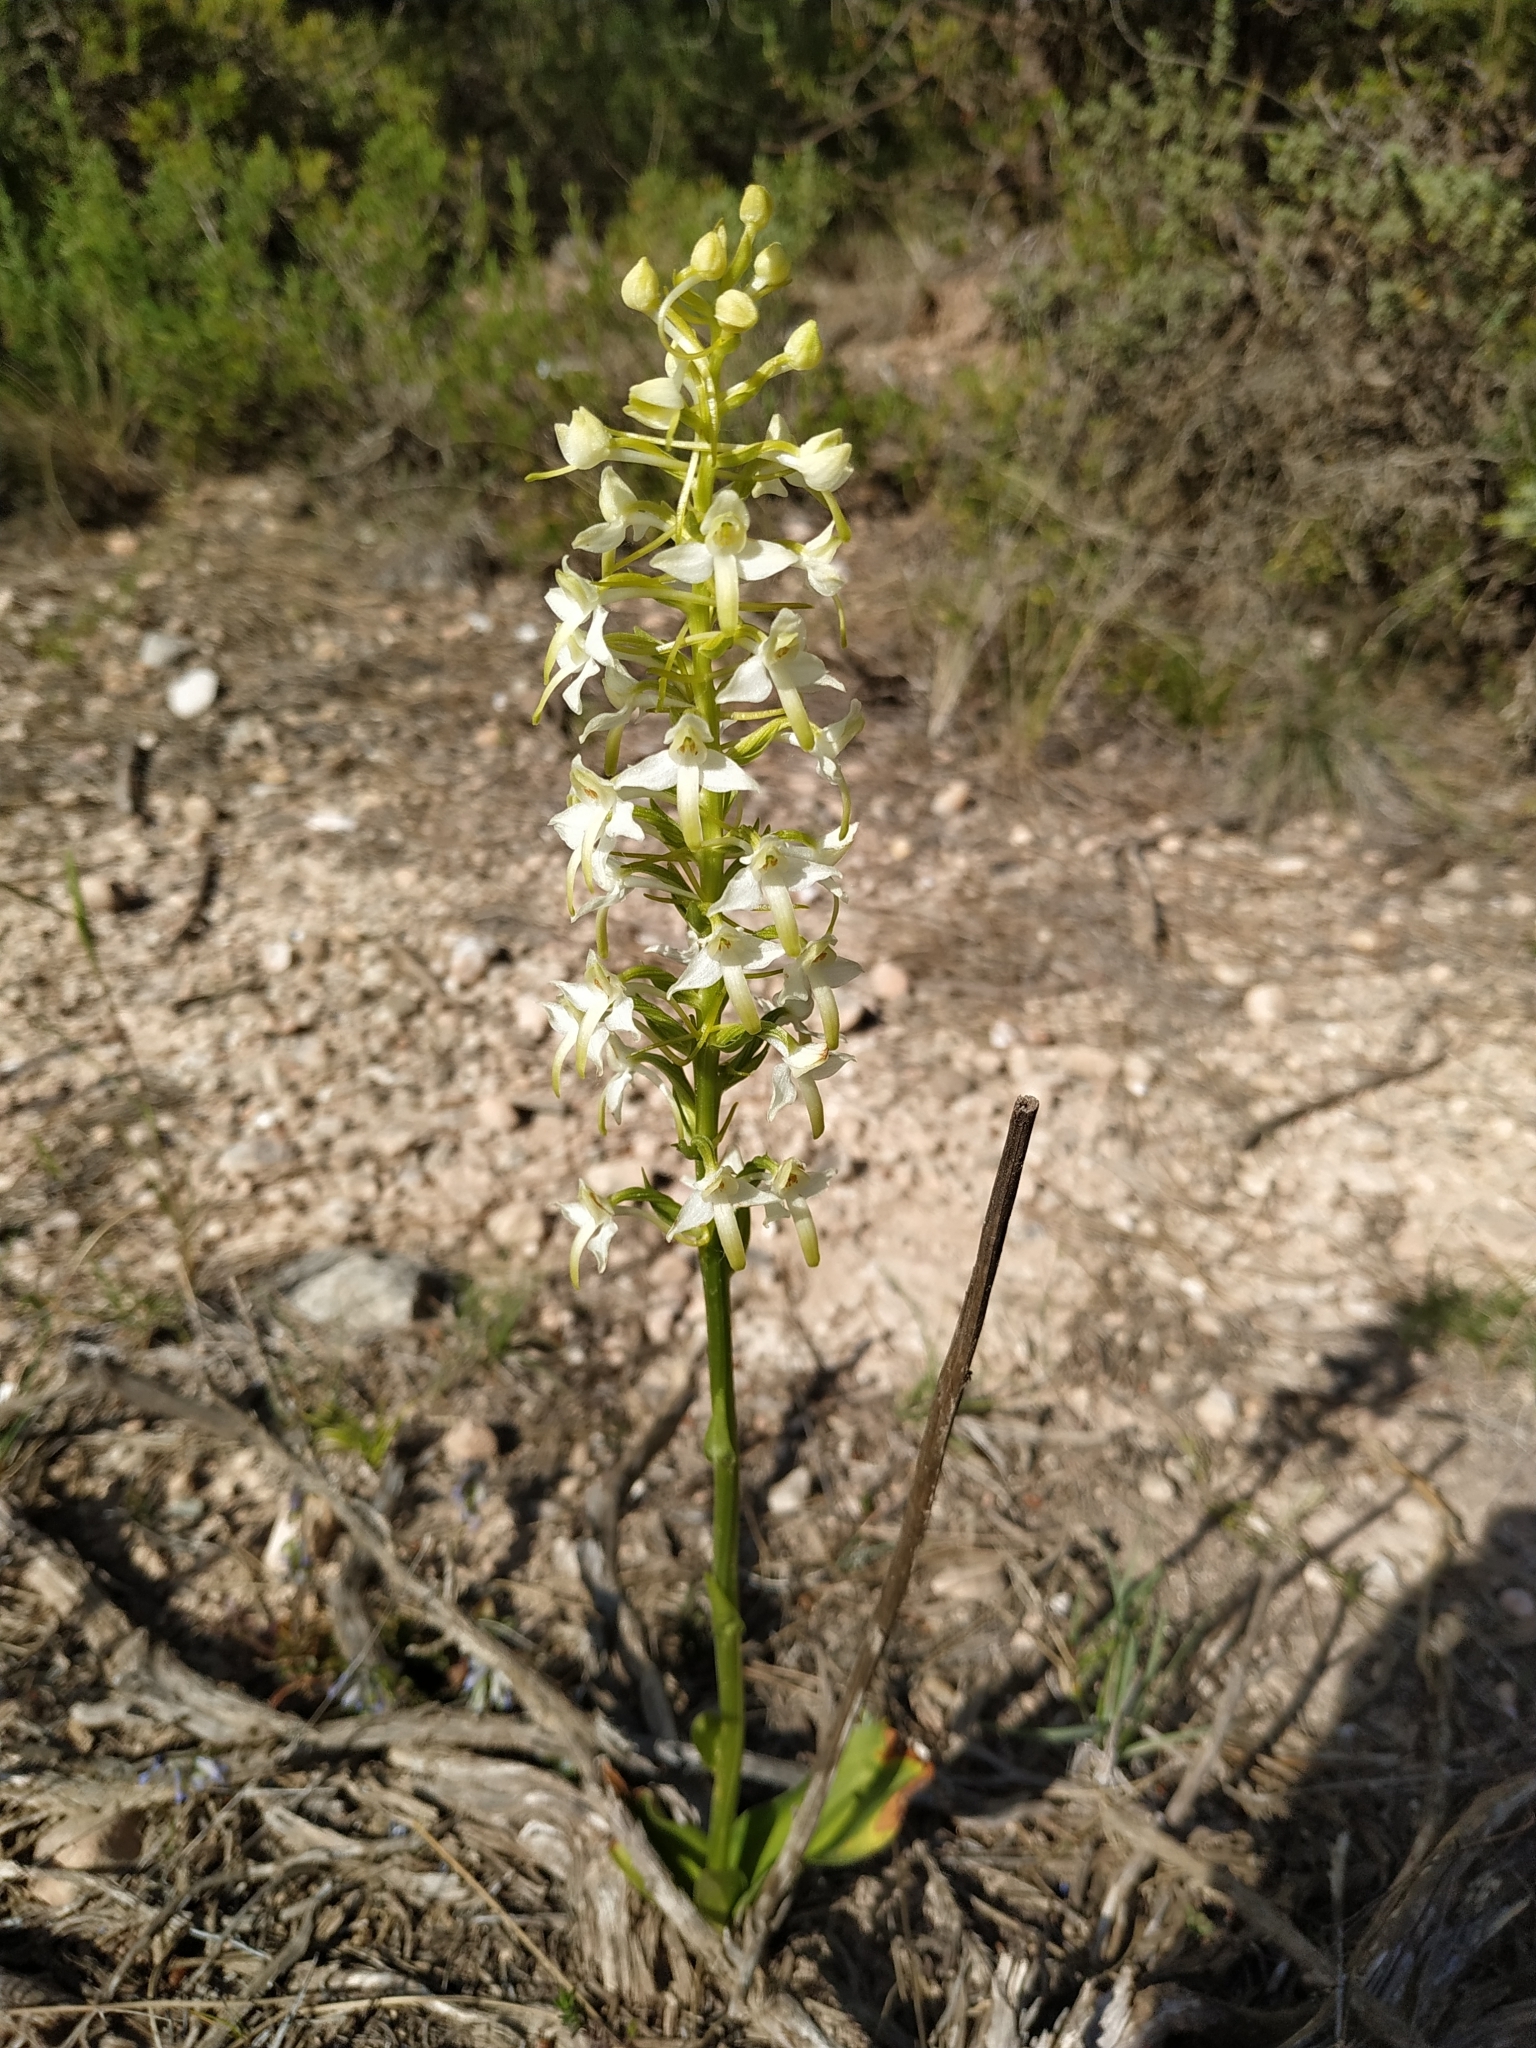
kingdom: Plantae
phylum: Tracheophyta
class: Liliopsida
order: Asparagales
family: Orchidaceae
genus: Platanthera
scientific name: Platanthera bifolia
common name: Lesser butterfly-orchid
